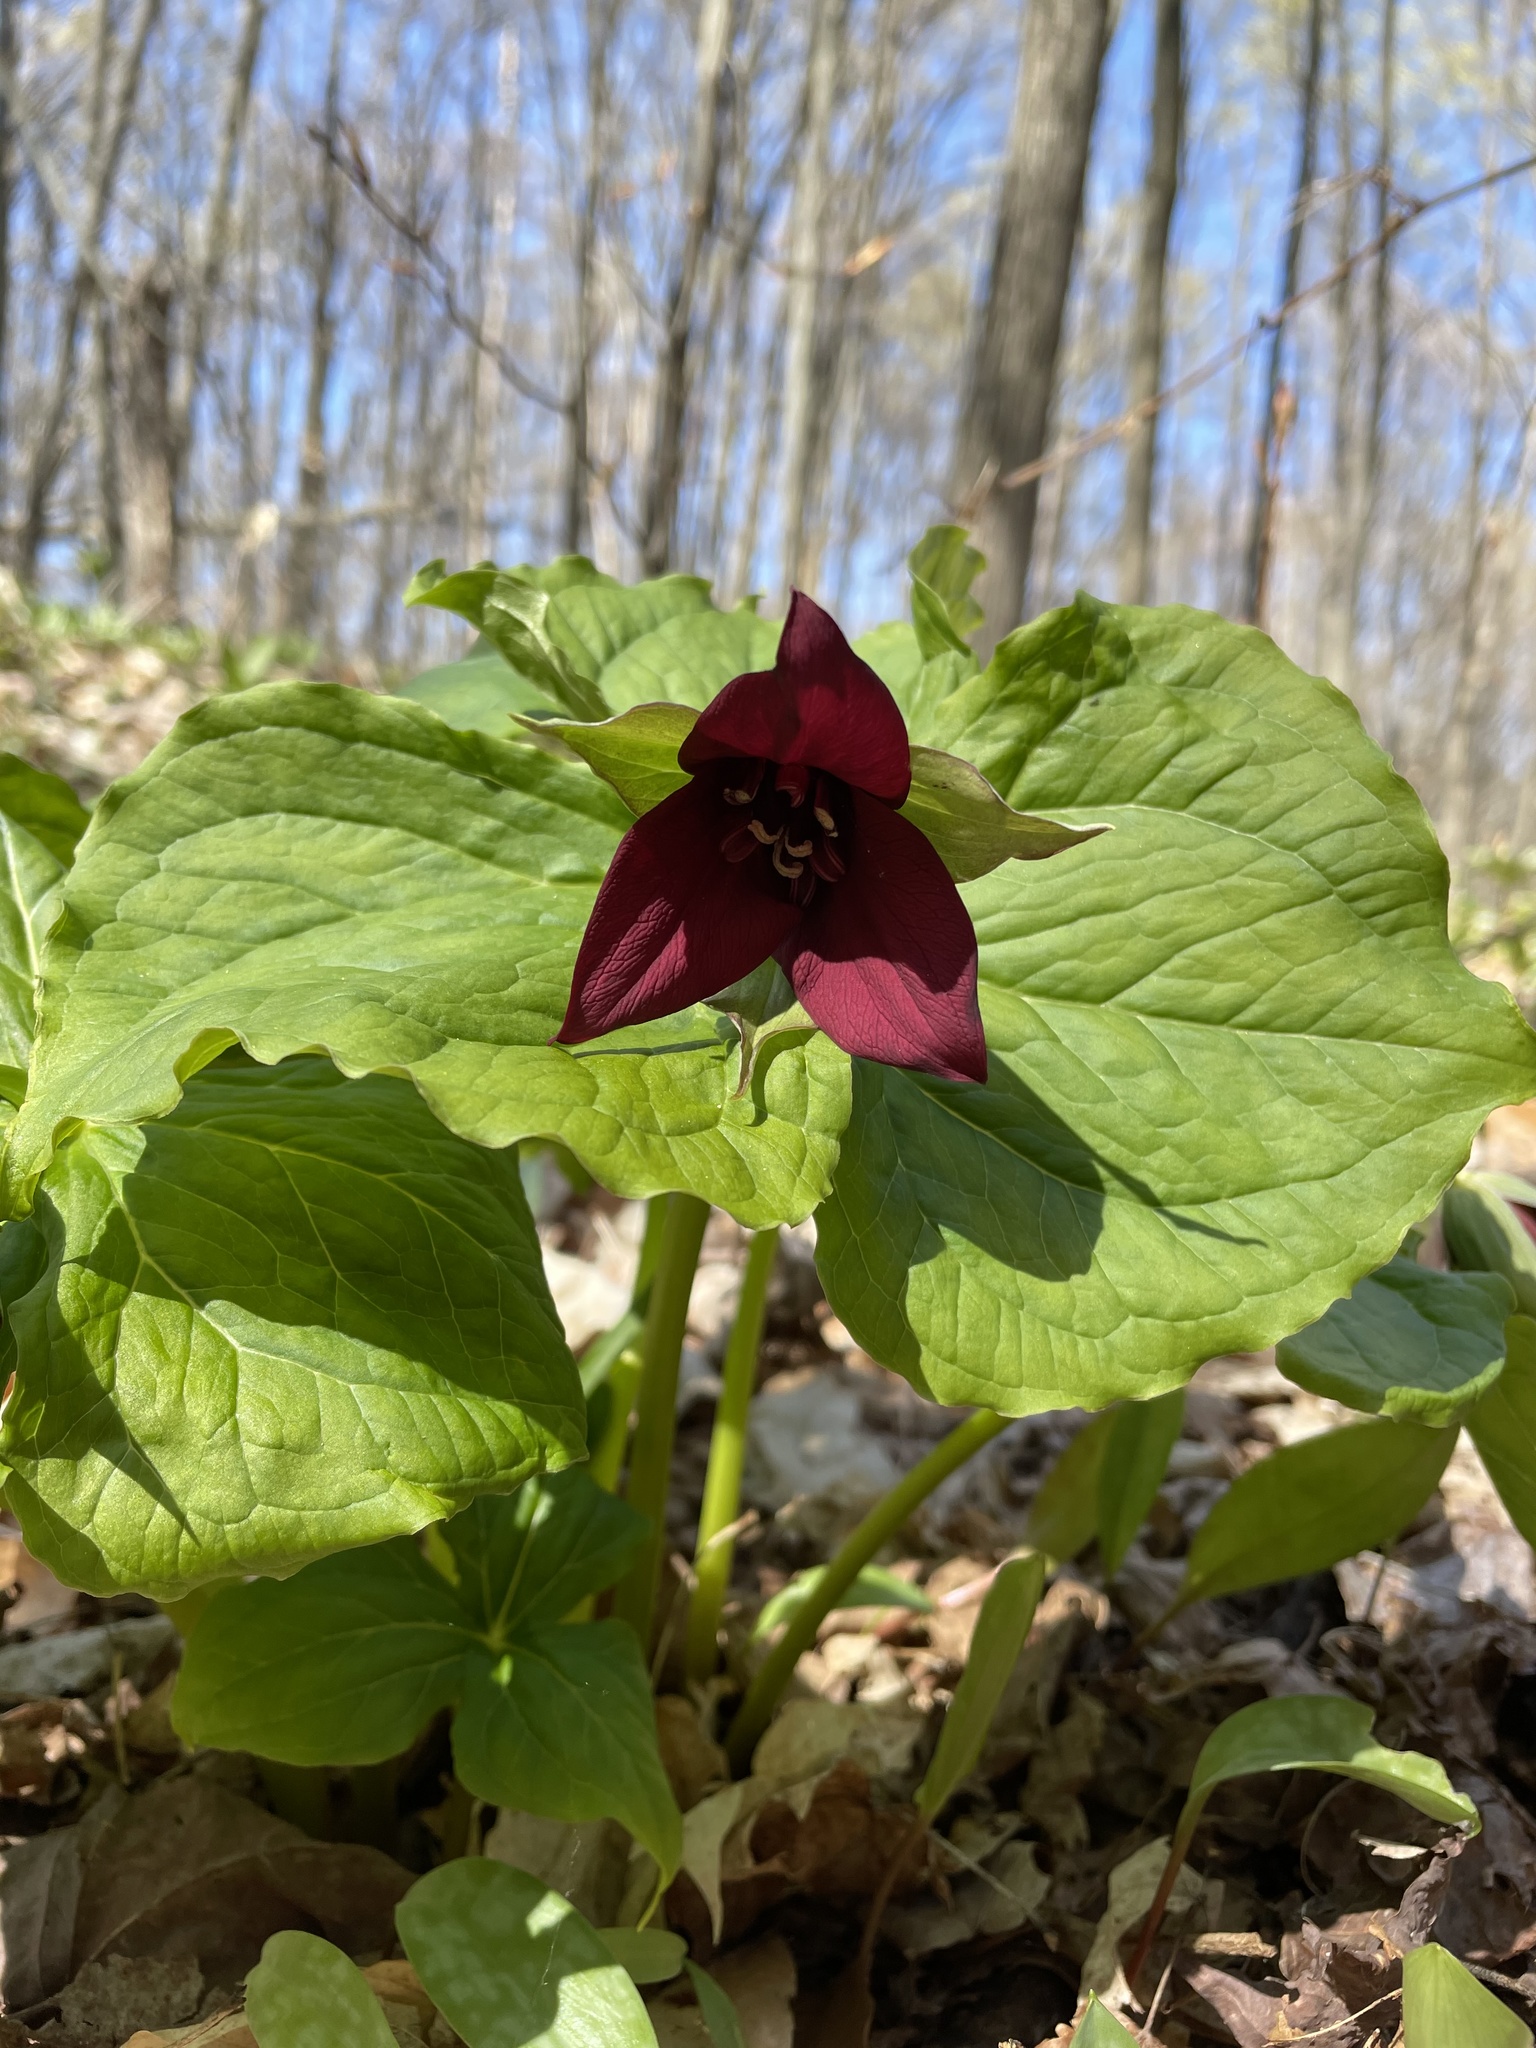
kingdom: Plantae
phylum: Tracheophyta
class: Liliopsida
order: Liliales
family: Melanthiaceae
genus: Trillium
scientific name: Trillium erectum
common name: Purple trillium
